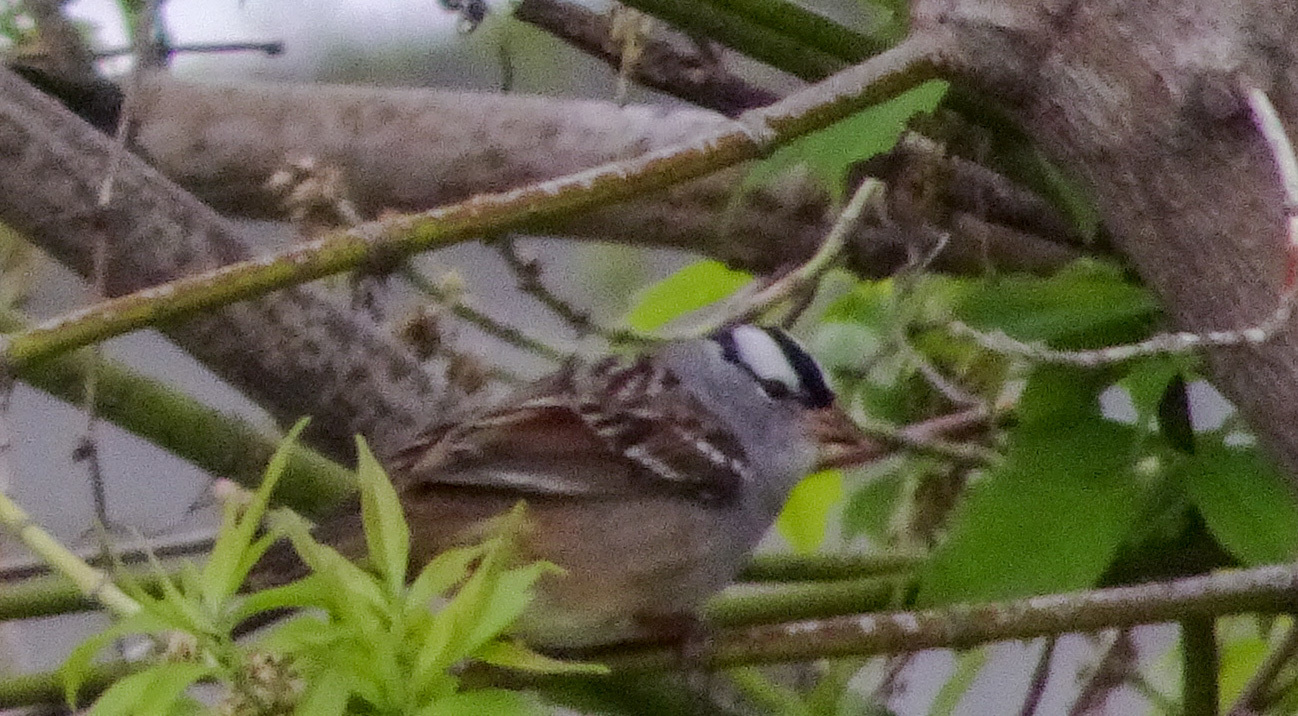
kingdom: Animalia
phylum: Chordata
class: Aves
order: Passeriformes
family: Passerellidae
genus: Zonotrichia
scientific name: Zonotrichia leucophrys
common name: White-crowned sparrow
